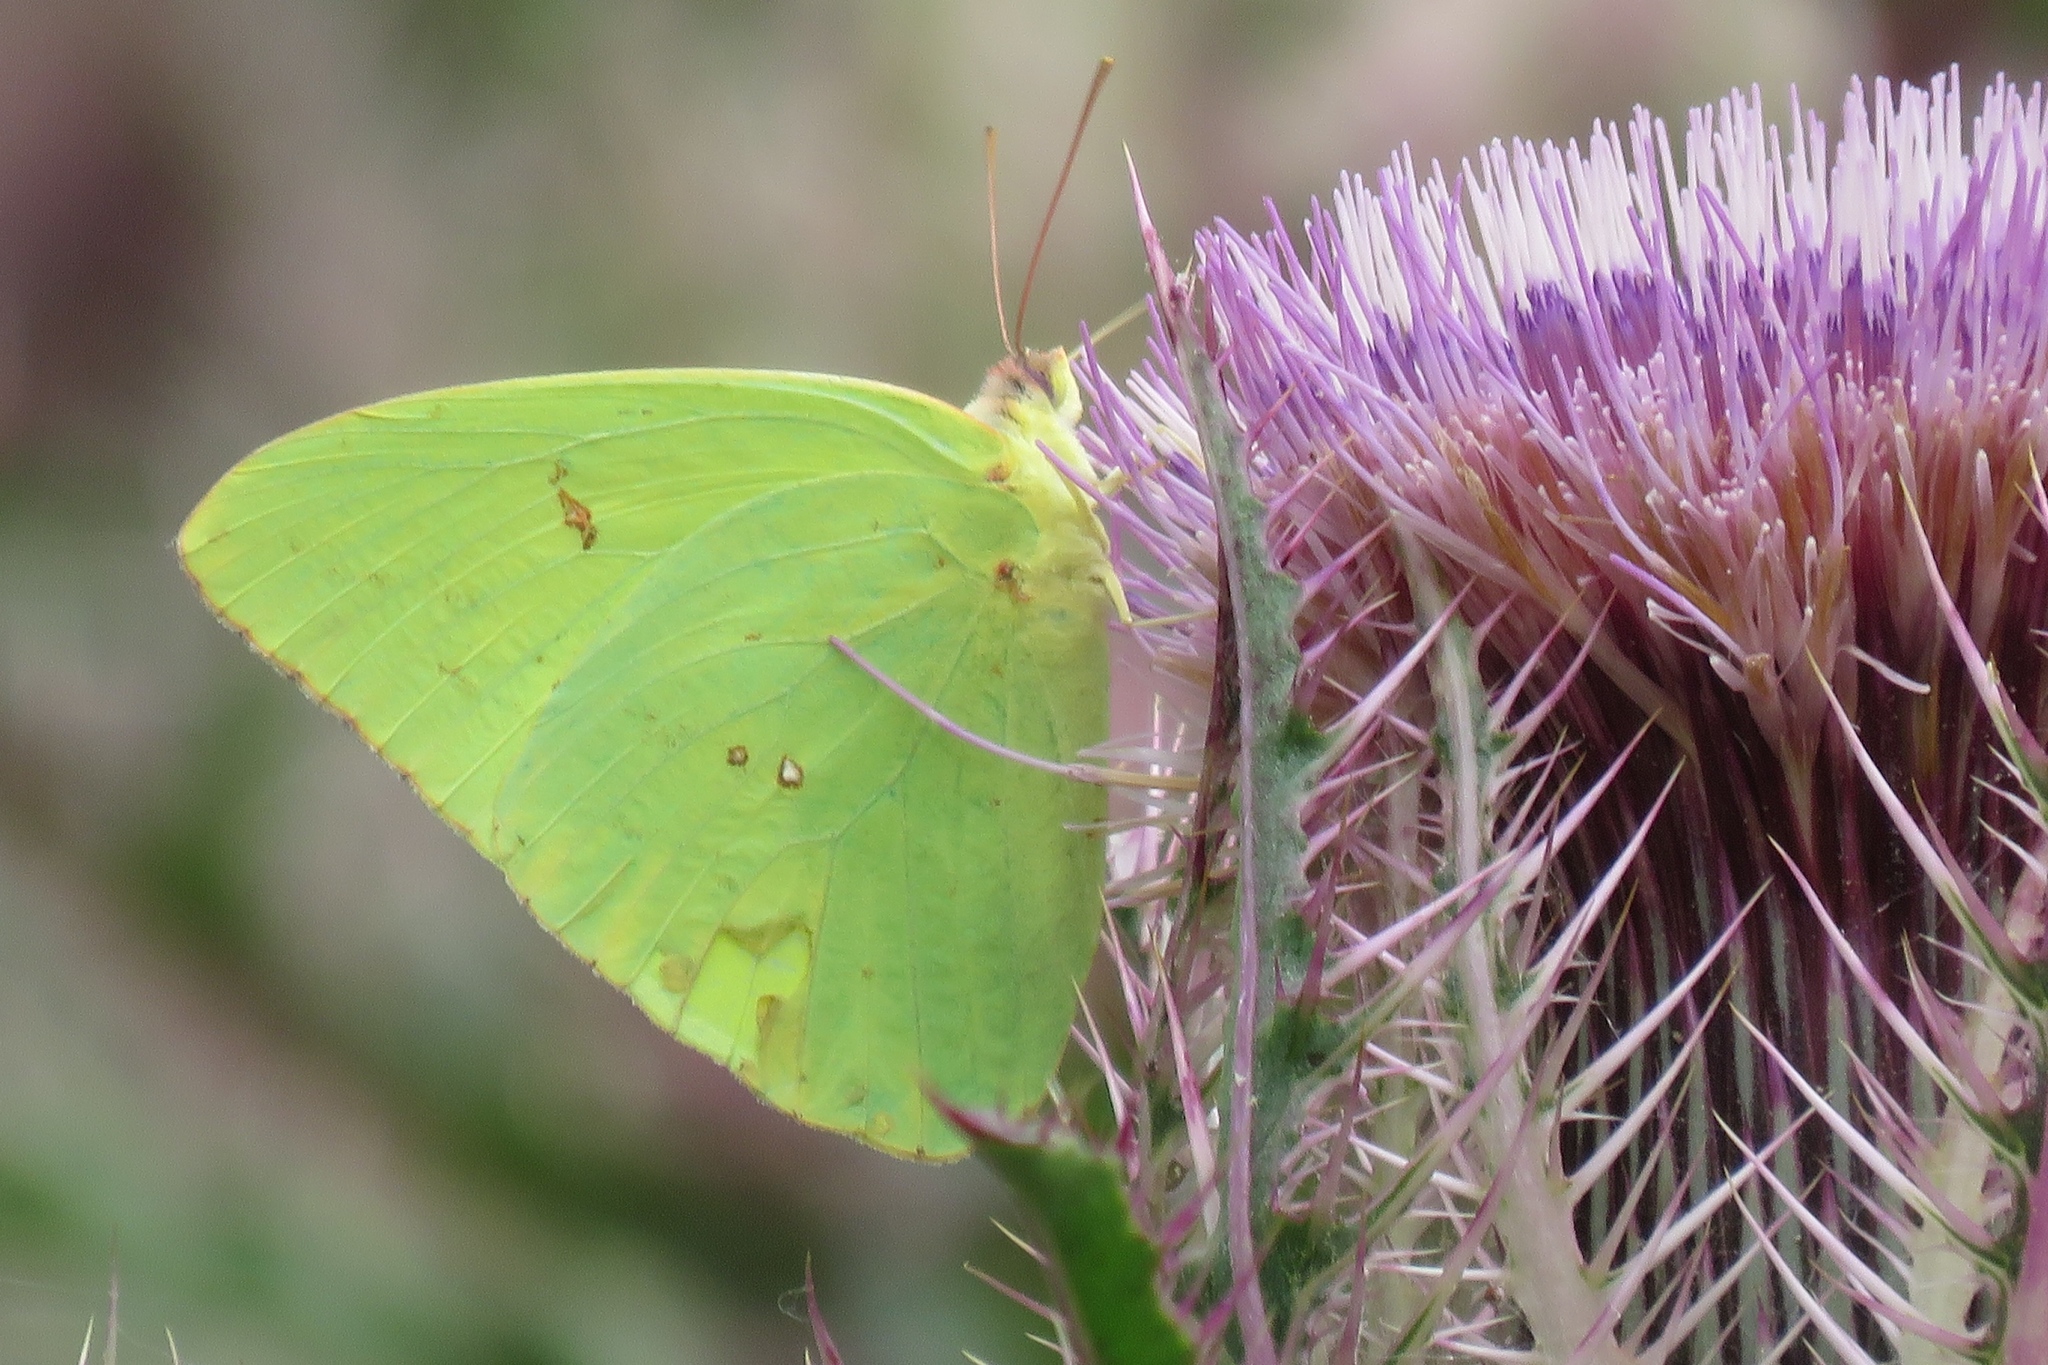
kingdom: Animalia
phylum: Arthropoda
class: Insecta
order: Lepidoptera
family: Pieridae
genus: Phoebis
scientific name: Phoebis sennae
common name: Cloudless sulphur
